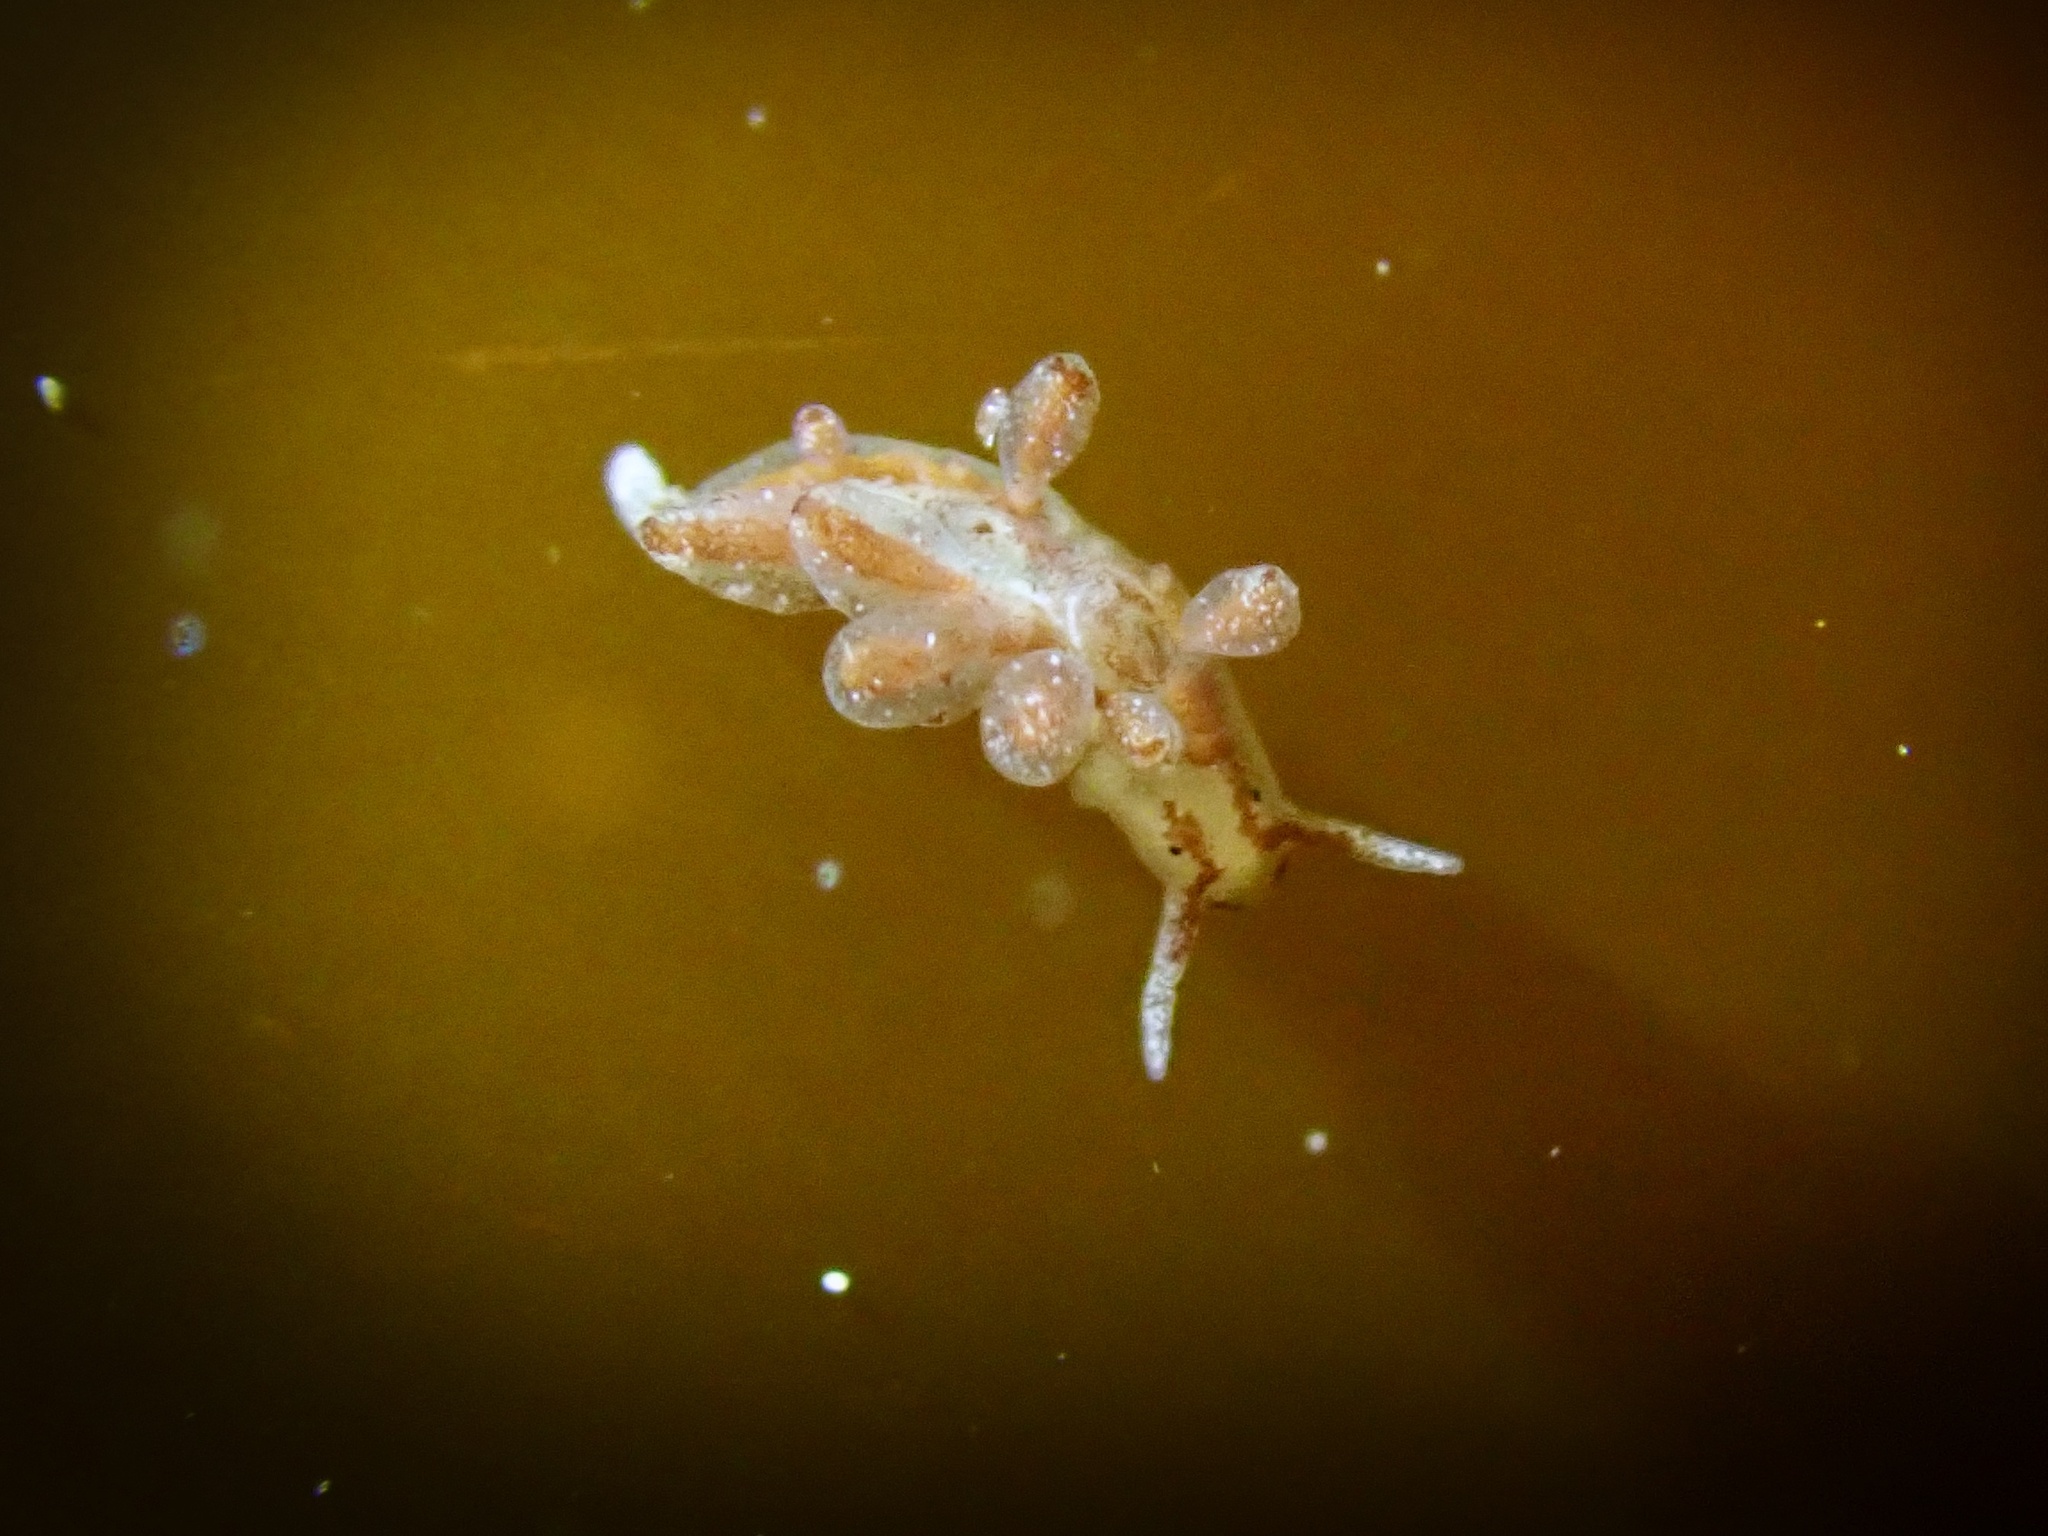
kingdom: Animalia
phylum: Mollusca
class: Gastropoda
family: Limapontiidae
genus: Stiliger
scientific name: Stiliger fuscovittatus
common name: Brown-streak stiliger
